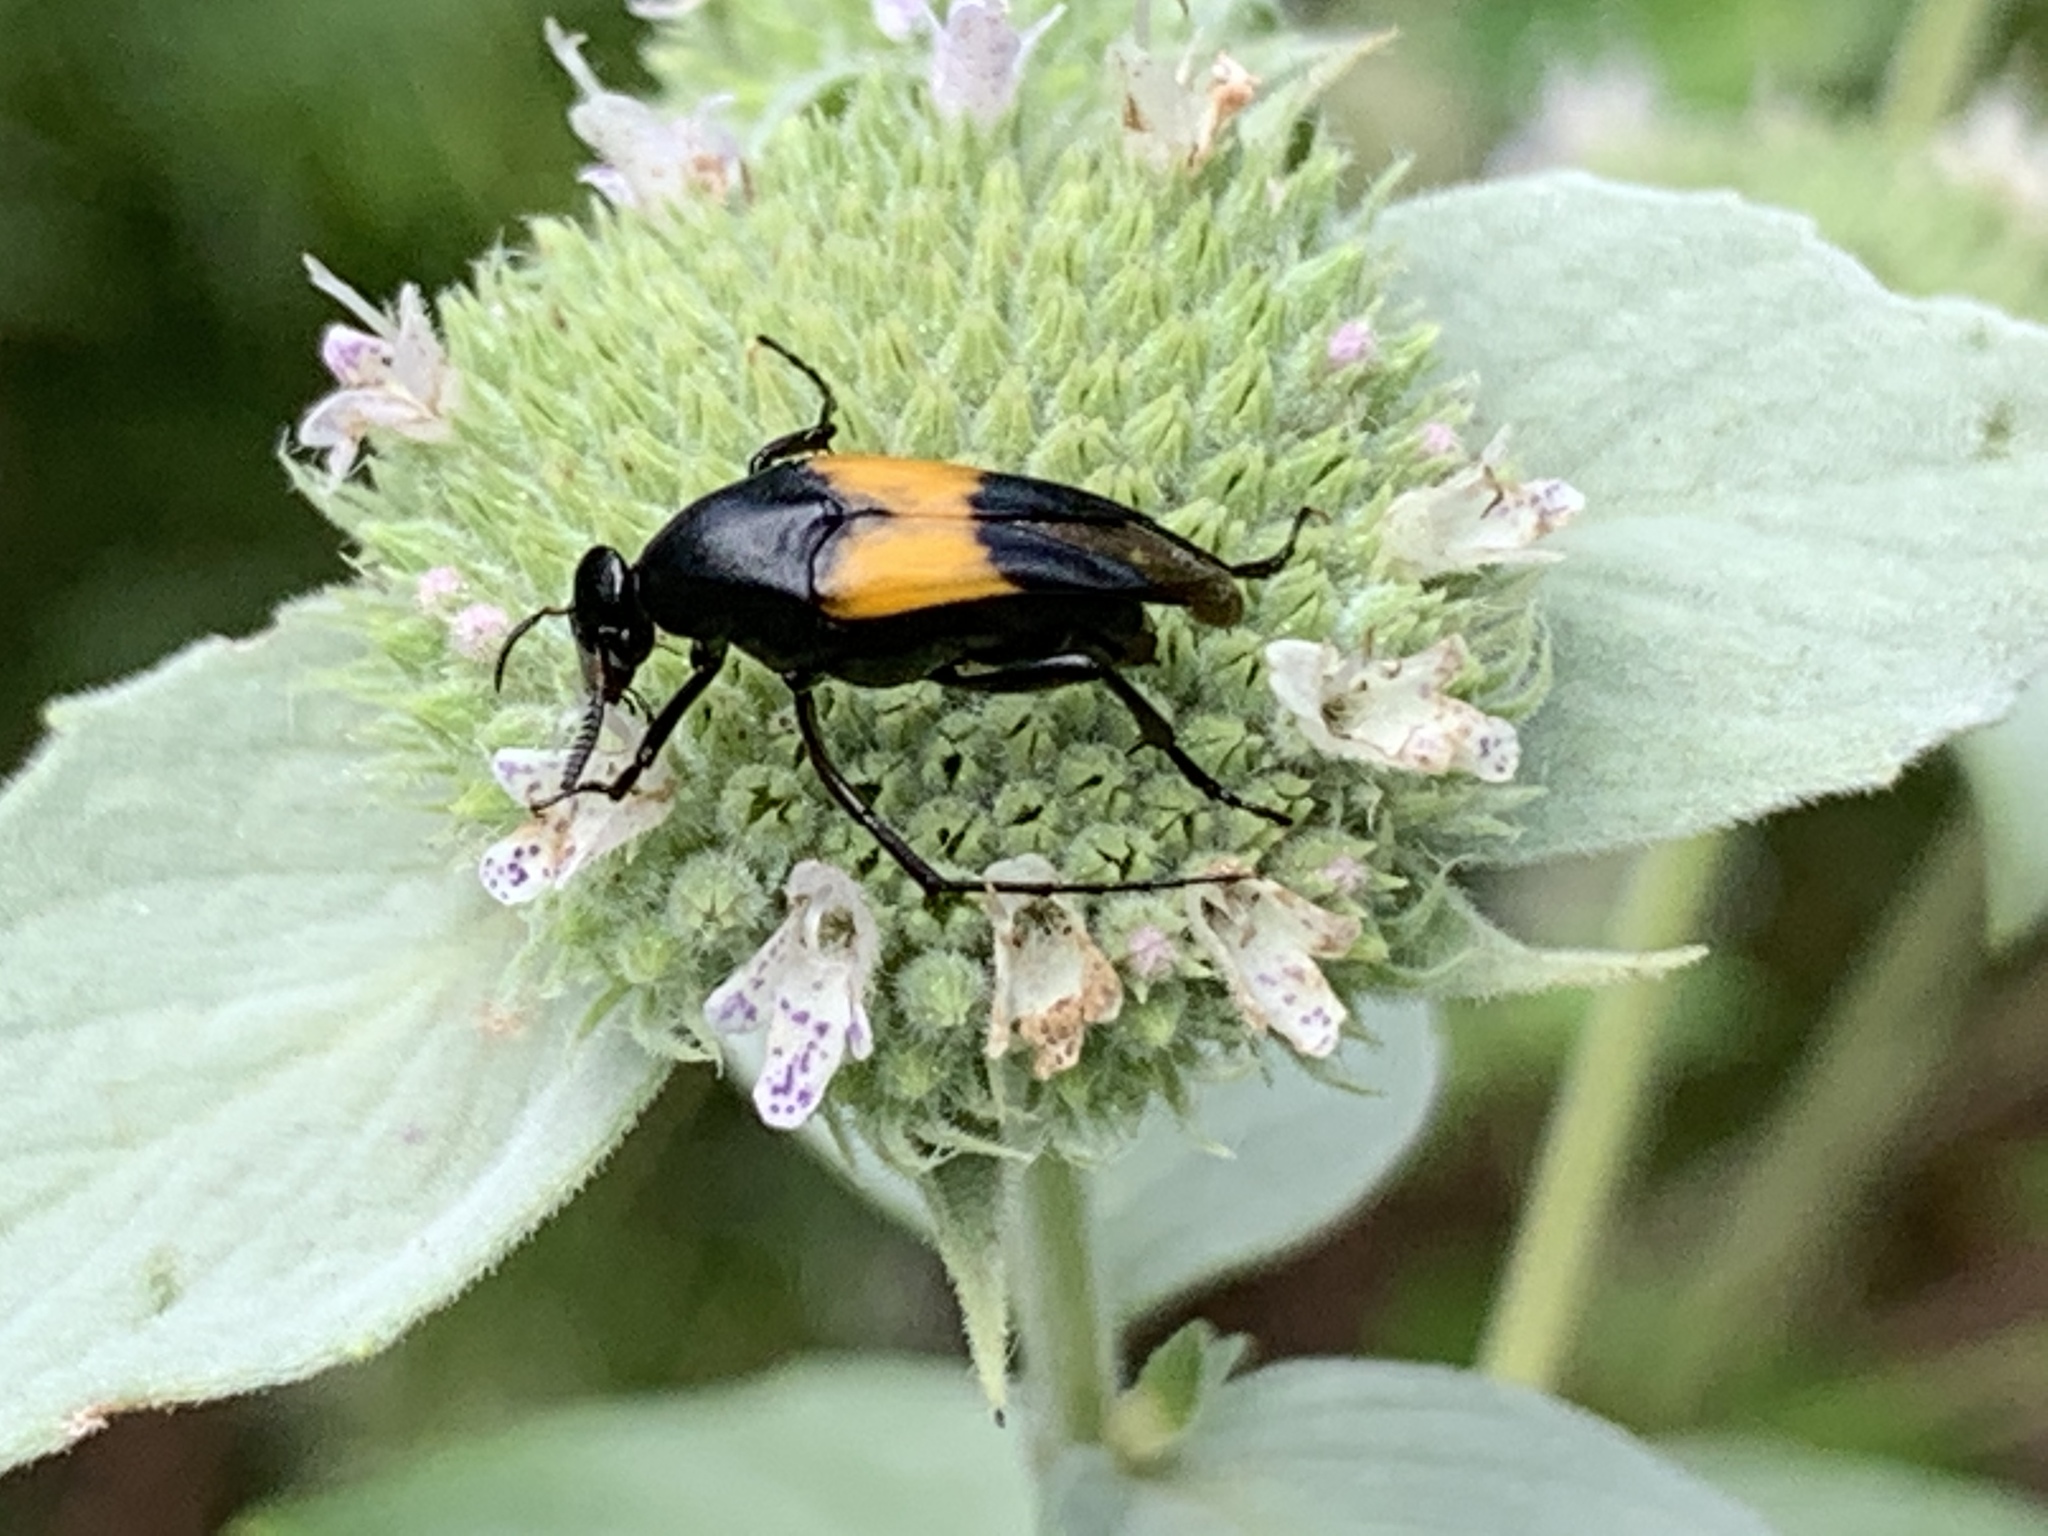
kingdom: Animalia
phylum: Arthropoda
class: Insecta
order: Coleoptera
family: Ripiphoridae
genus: Macrosiagon
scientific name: Macrosiagon dimidiata
